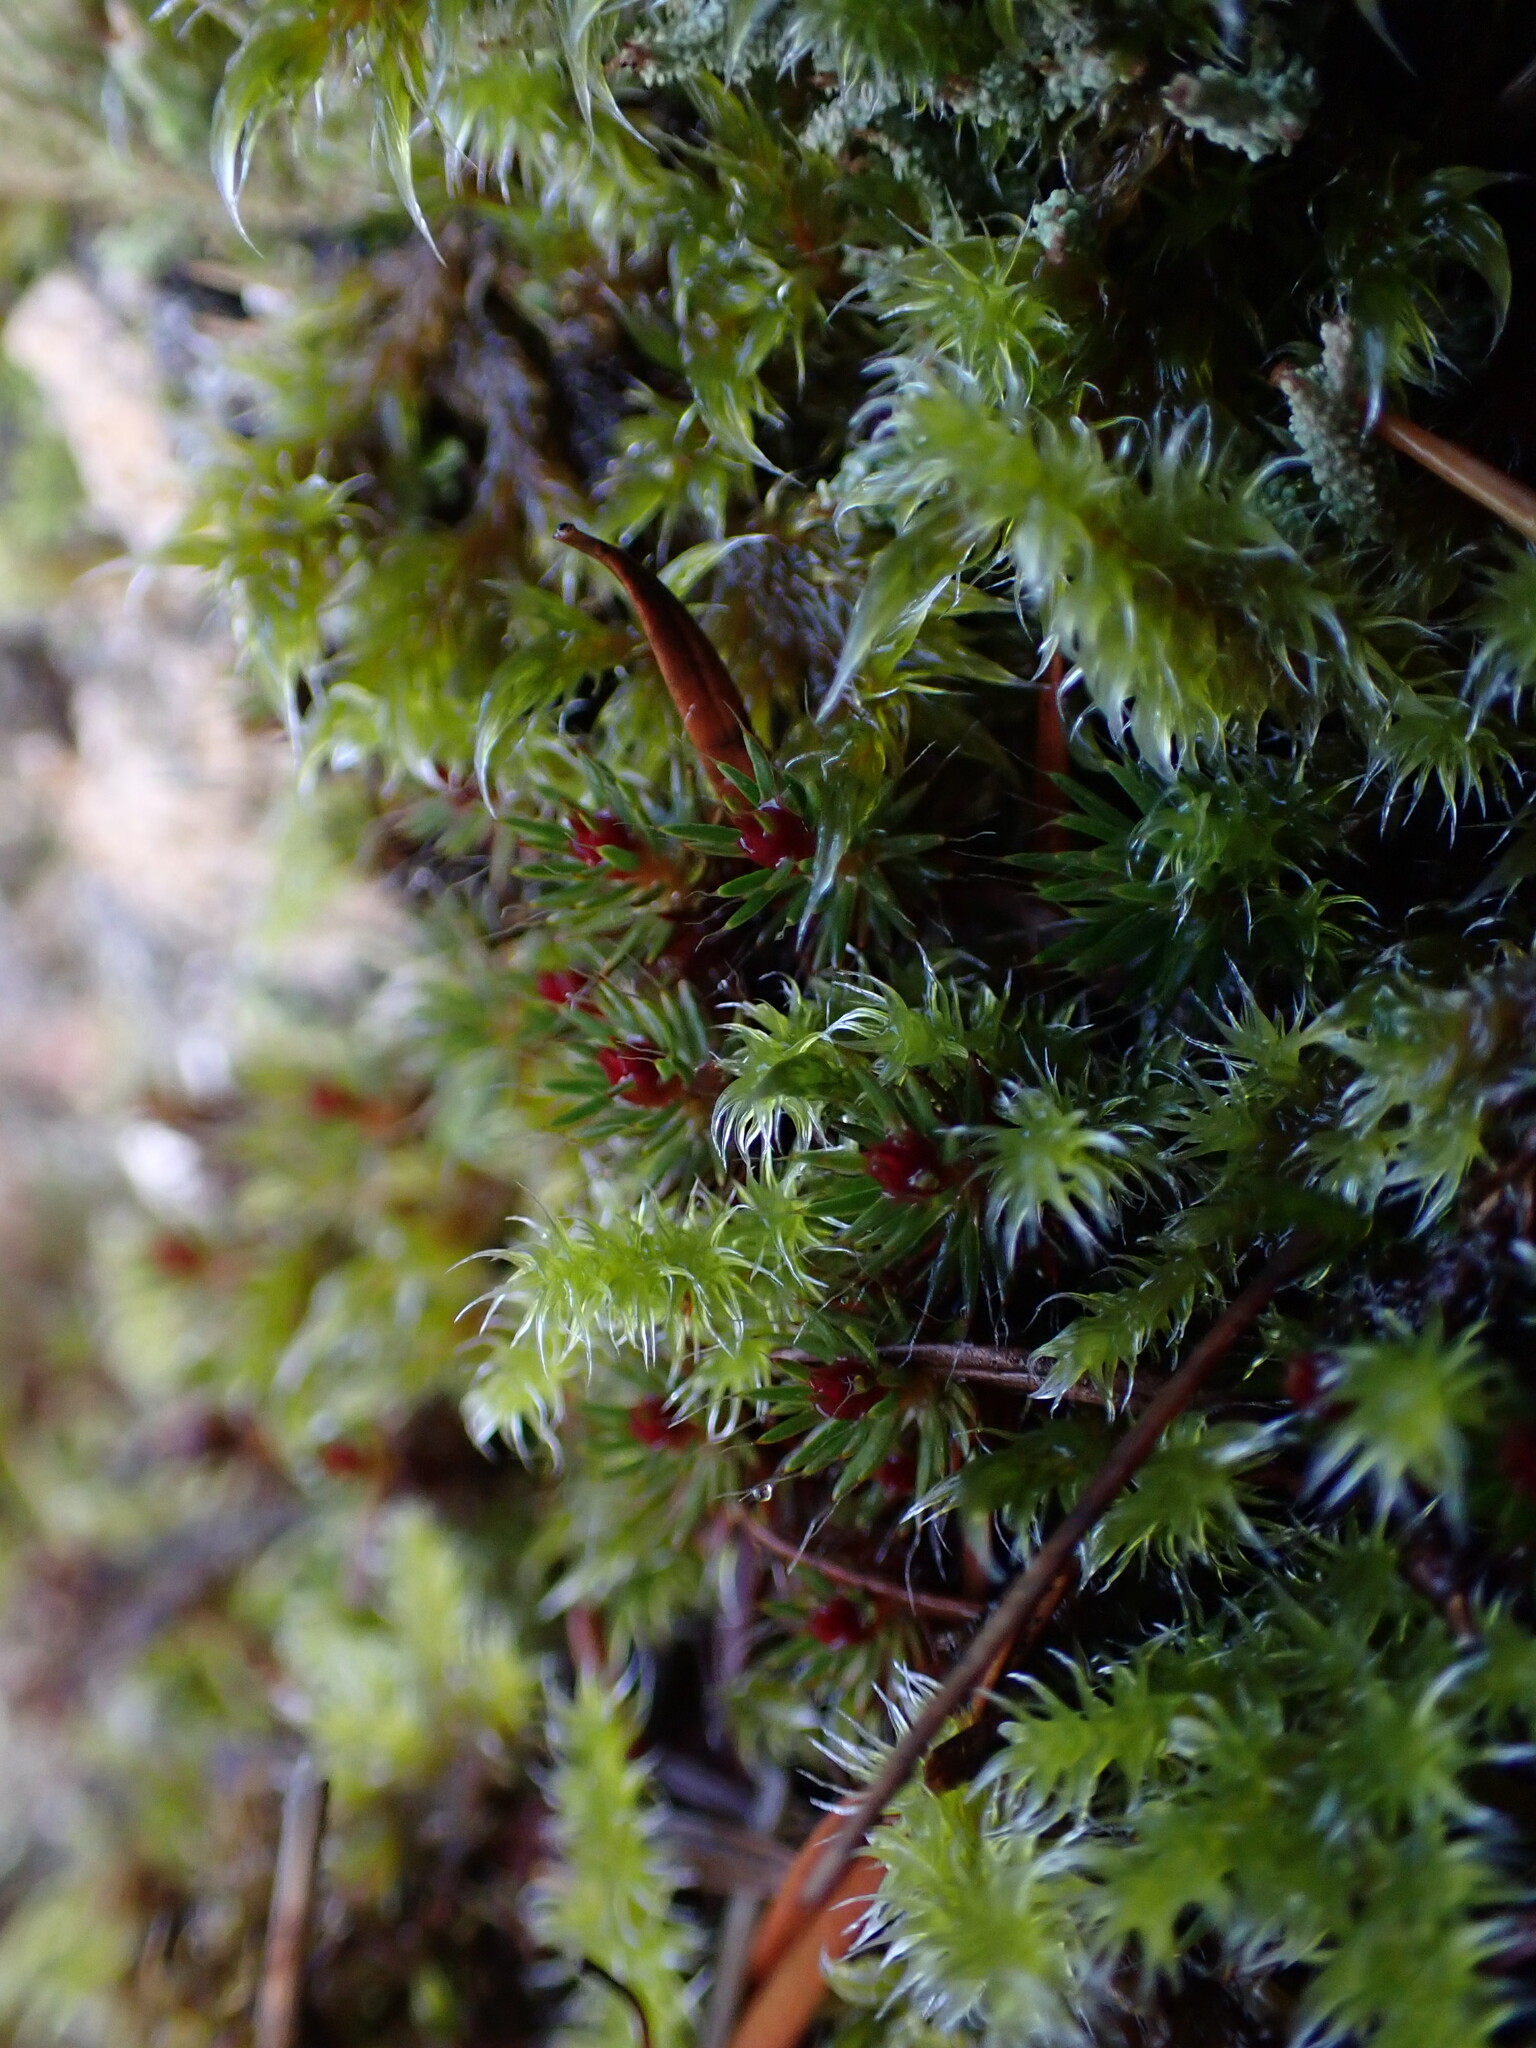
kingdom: Plantae
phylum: Bryophyta
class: Polytrichopsida
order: Polytrichales
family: Polytrichaceae
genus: Polytrichum
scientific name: Polytrichum piliferum
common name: Bristly haircap
